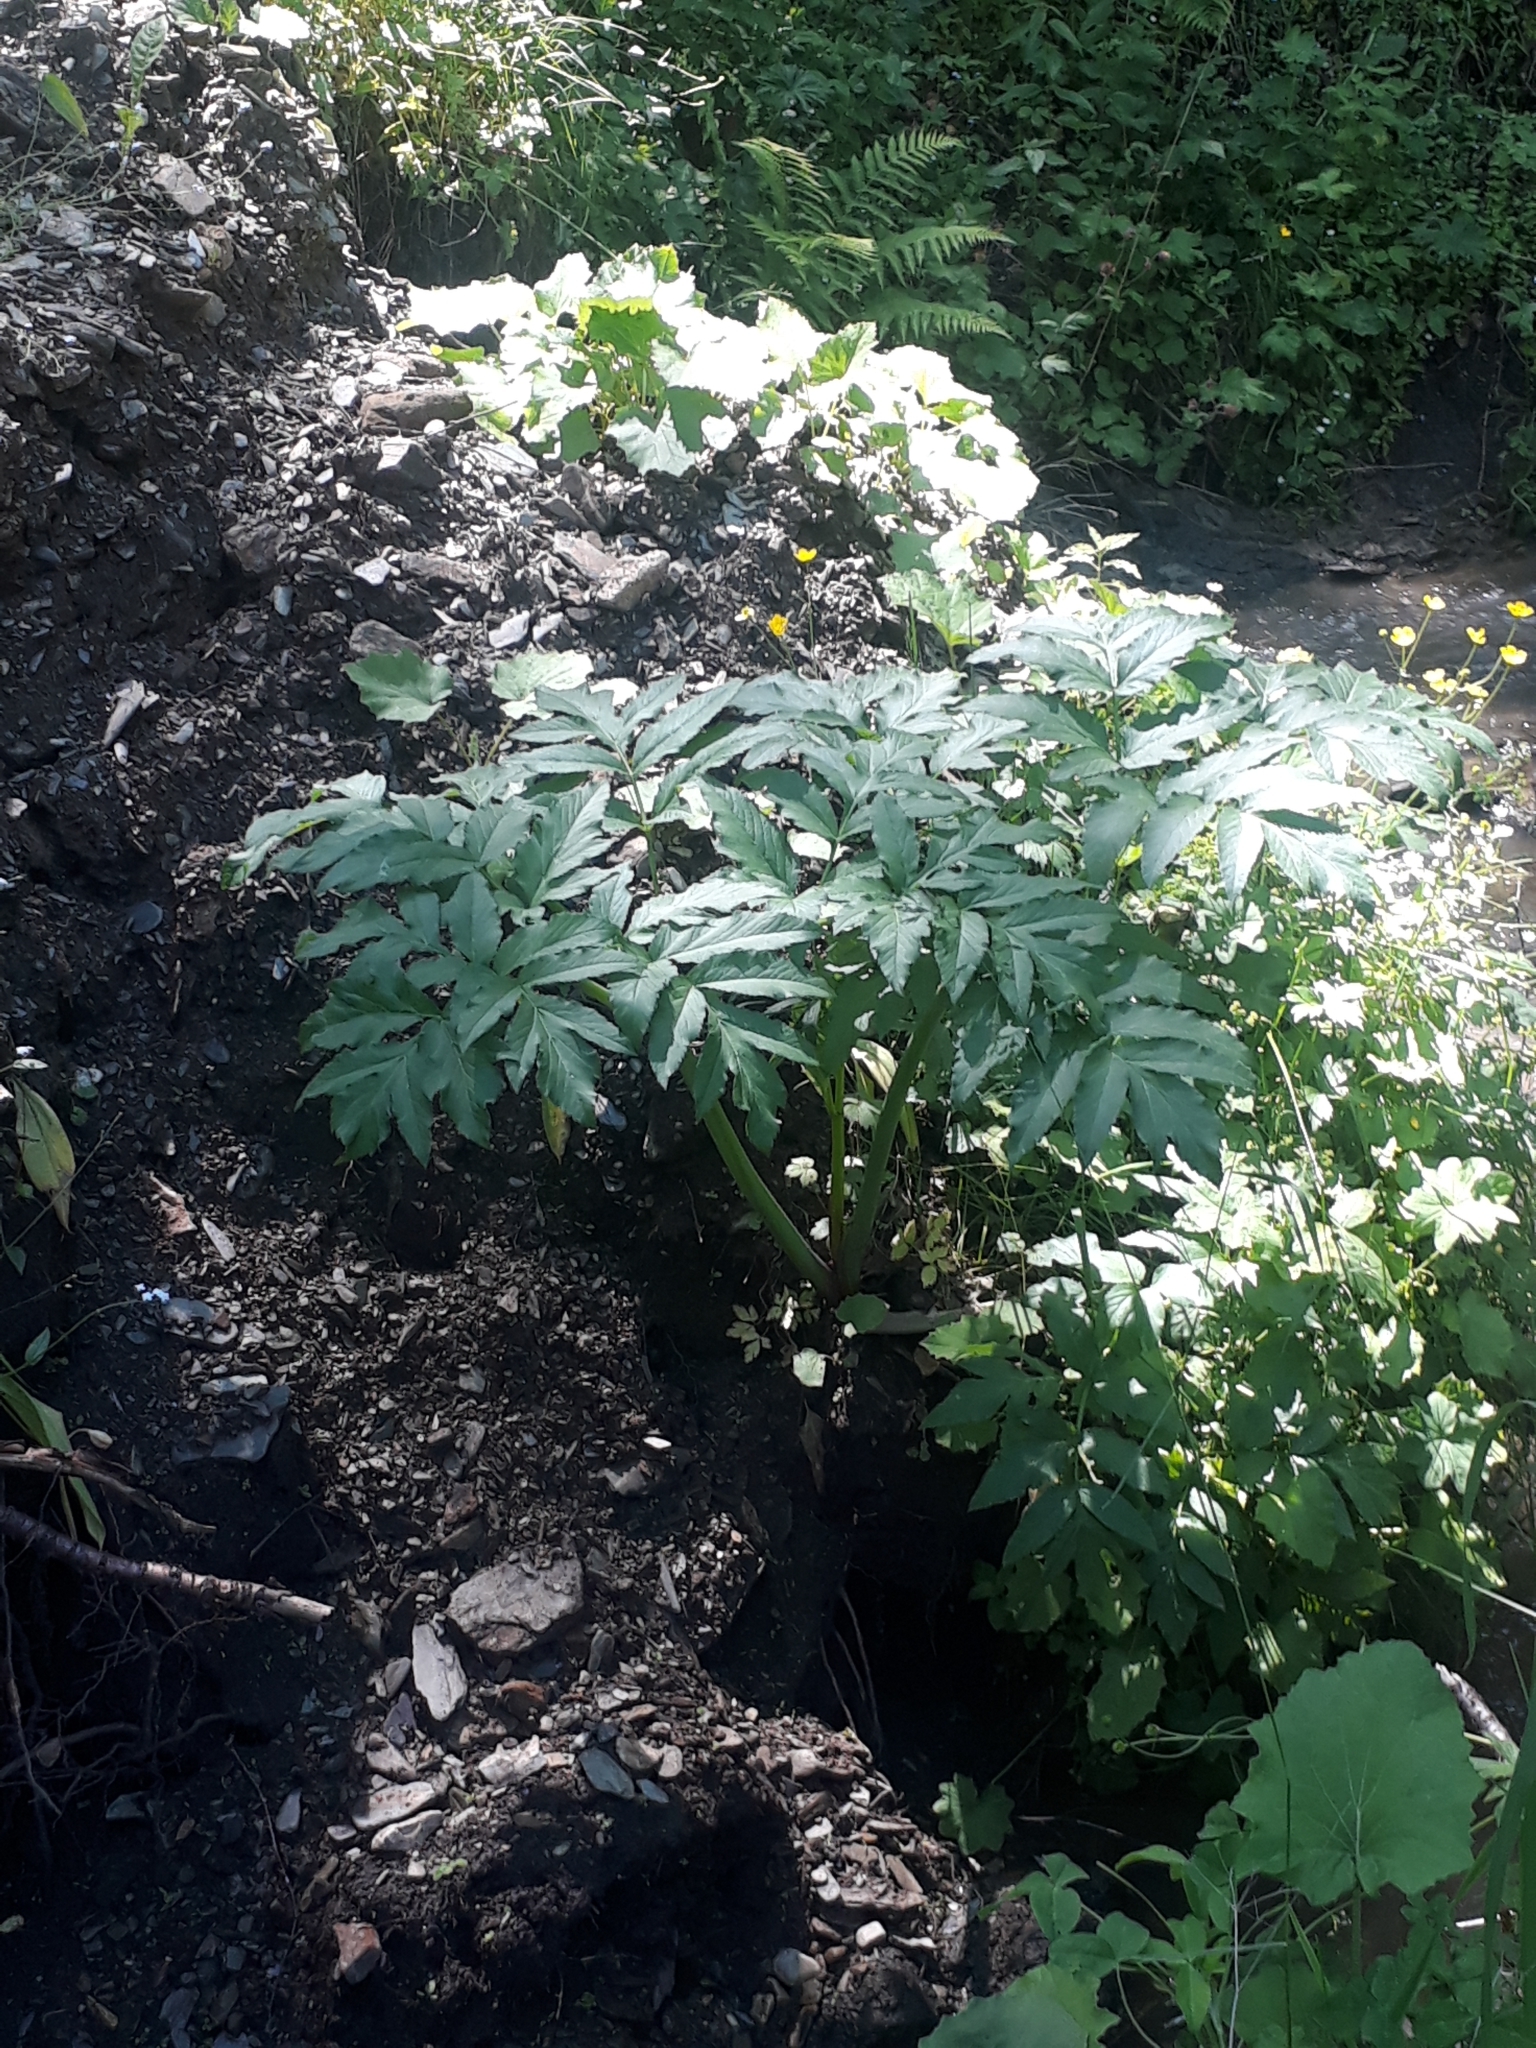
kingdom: Plantae
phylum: Tracheophyta
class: Magnoliopsida
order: Apiales
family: Apiaceae
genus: Angelica
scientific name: Angelica decurrens
